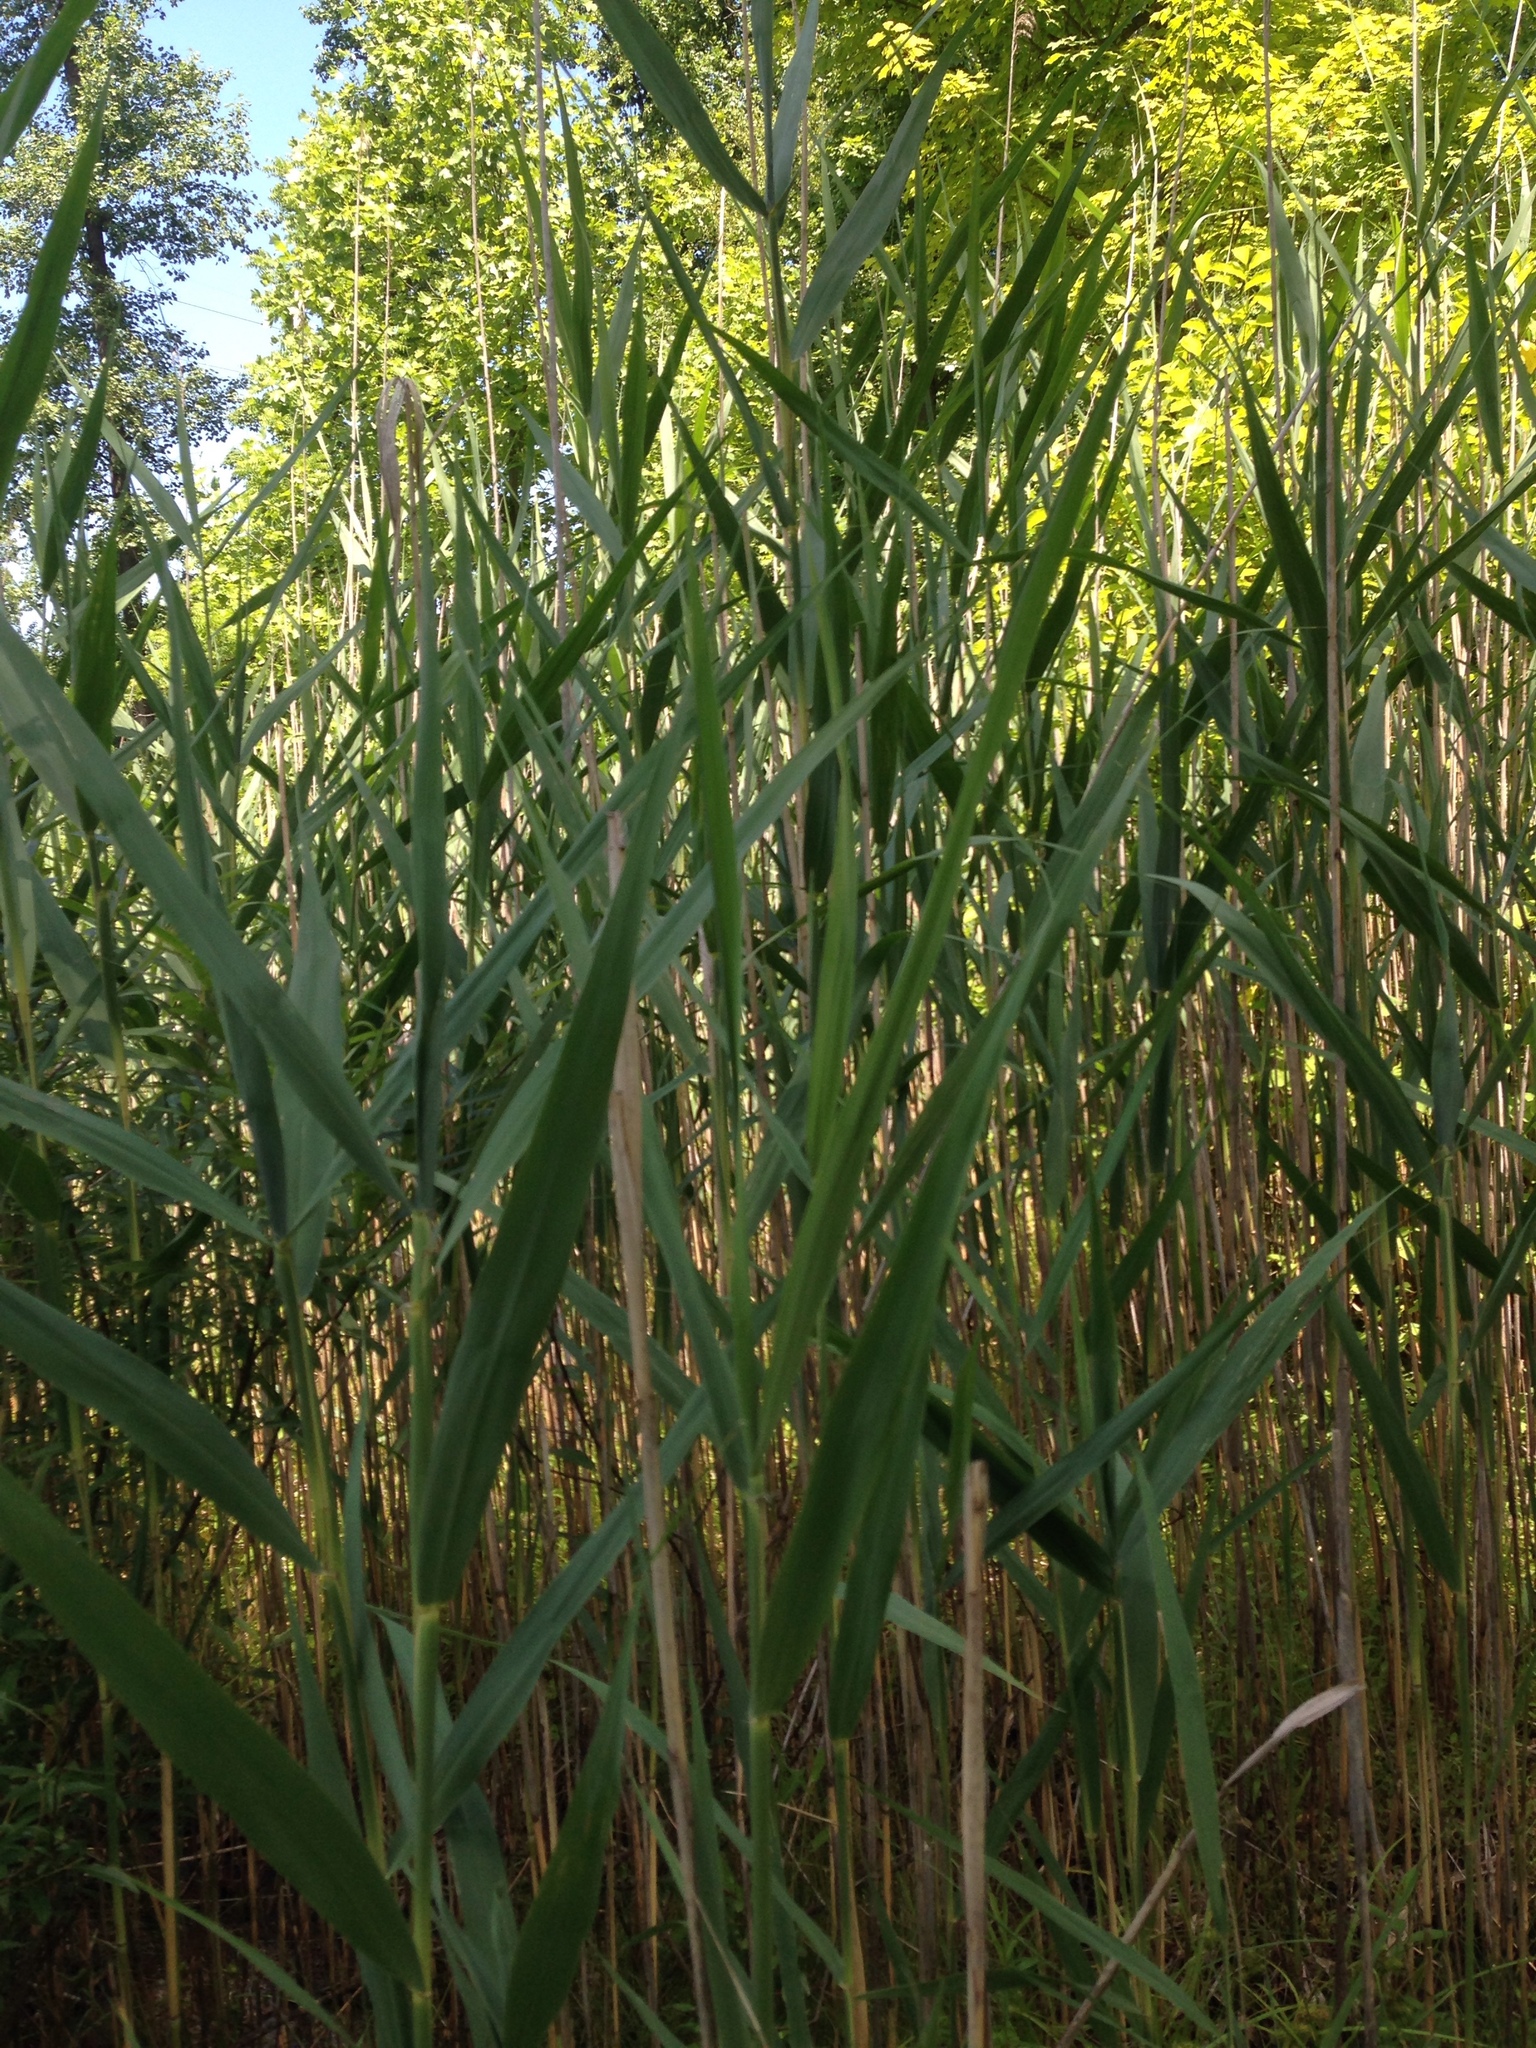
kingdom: Plantae
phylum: Tracheophyta
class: Liliopsida
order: Poales
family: Poaceae
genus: Phragmites
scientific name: Phragmites australis
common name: Common reed
